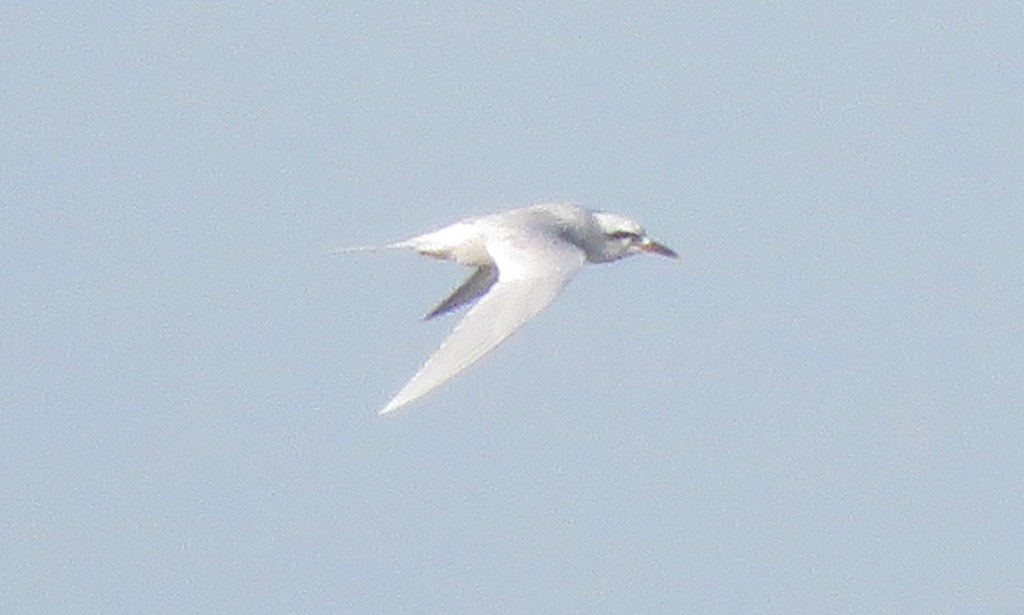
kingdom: Animalia
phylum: Chordata
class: Aves
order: Charadriiformes
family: Laridae
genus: Sterna
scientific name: Sterna trudeaui
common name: Snowy-crowned tern
